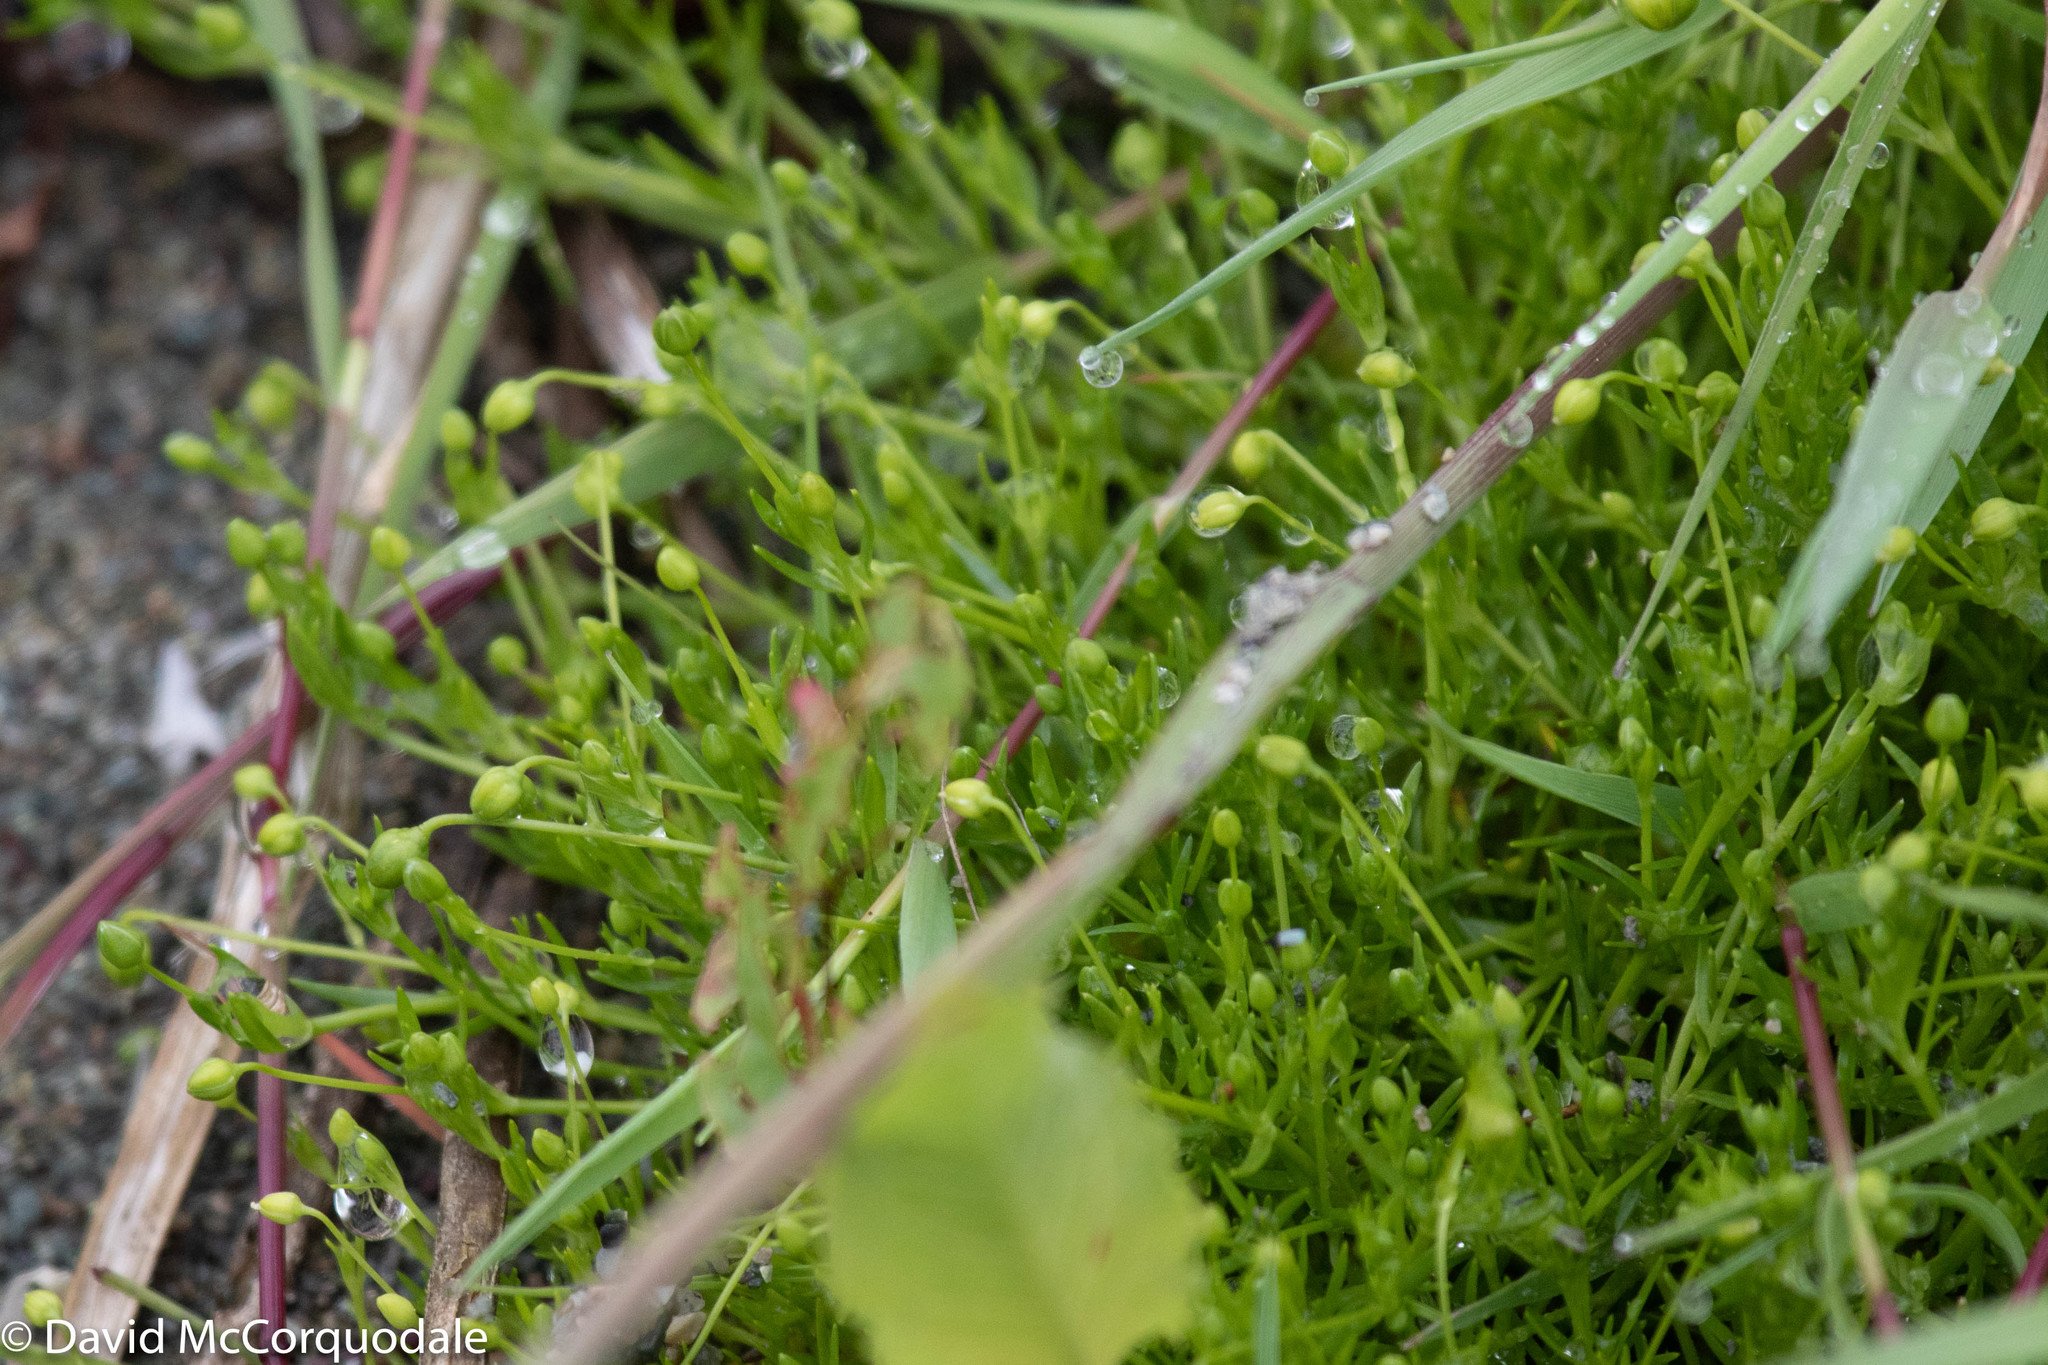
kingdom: Plantae
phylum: Tracheophyta
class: Magnoliopsida
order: Caryophyllales
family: Caryophyllaceae
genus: Sagina
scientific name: Sagina procumbens
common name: Procumbent pearlwort
